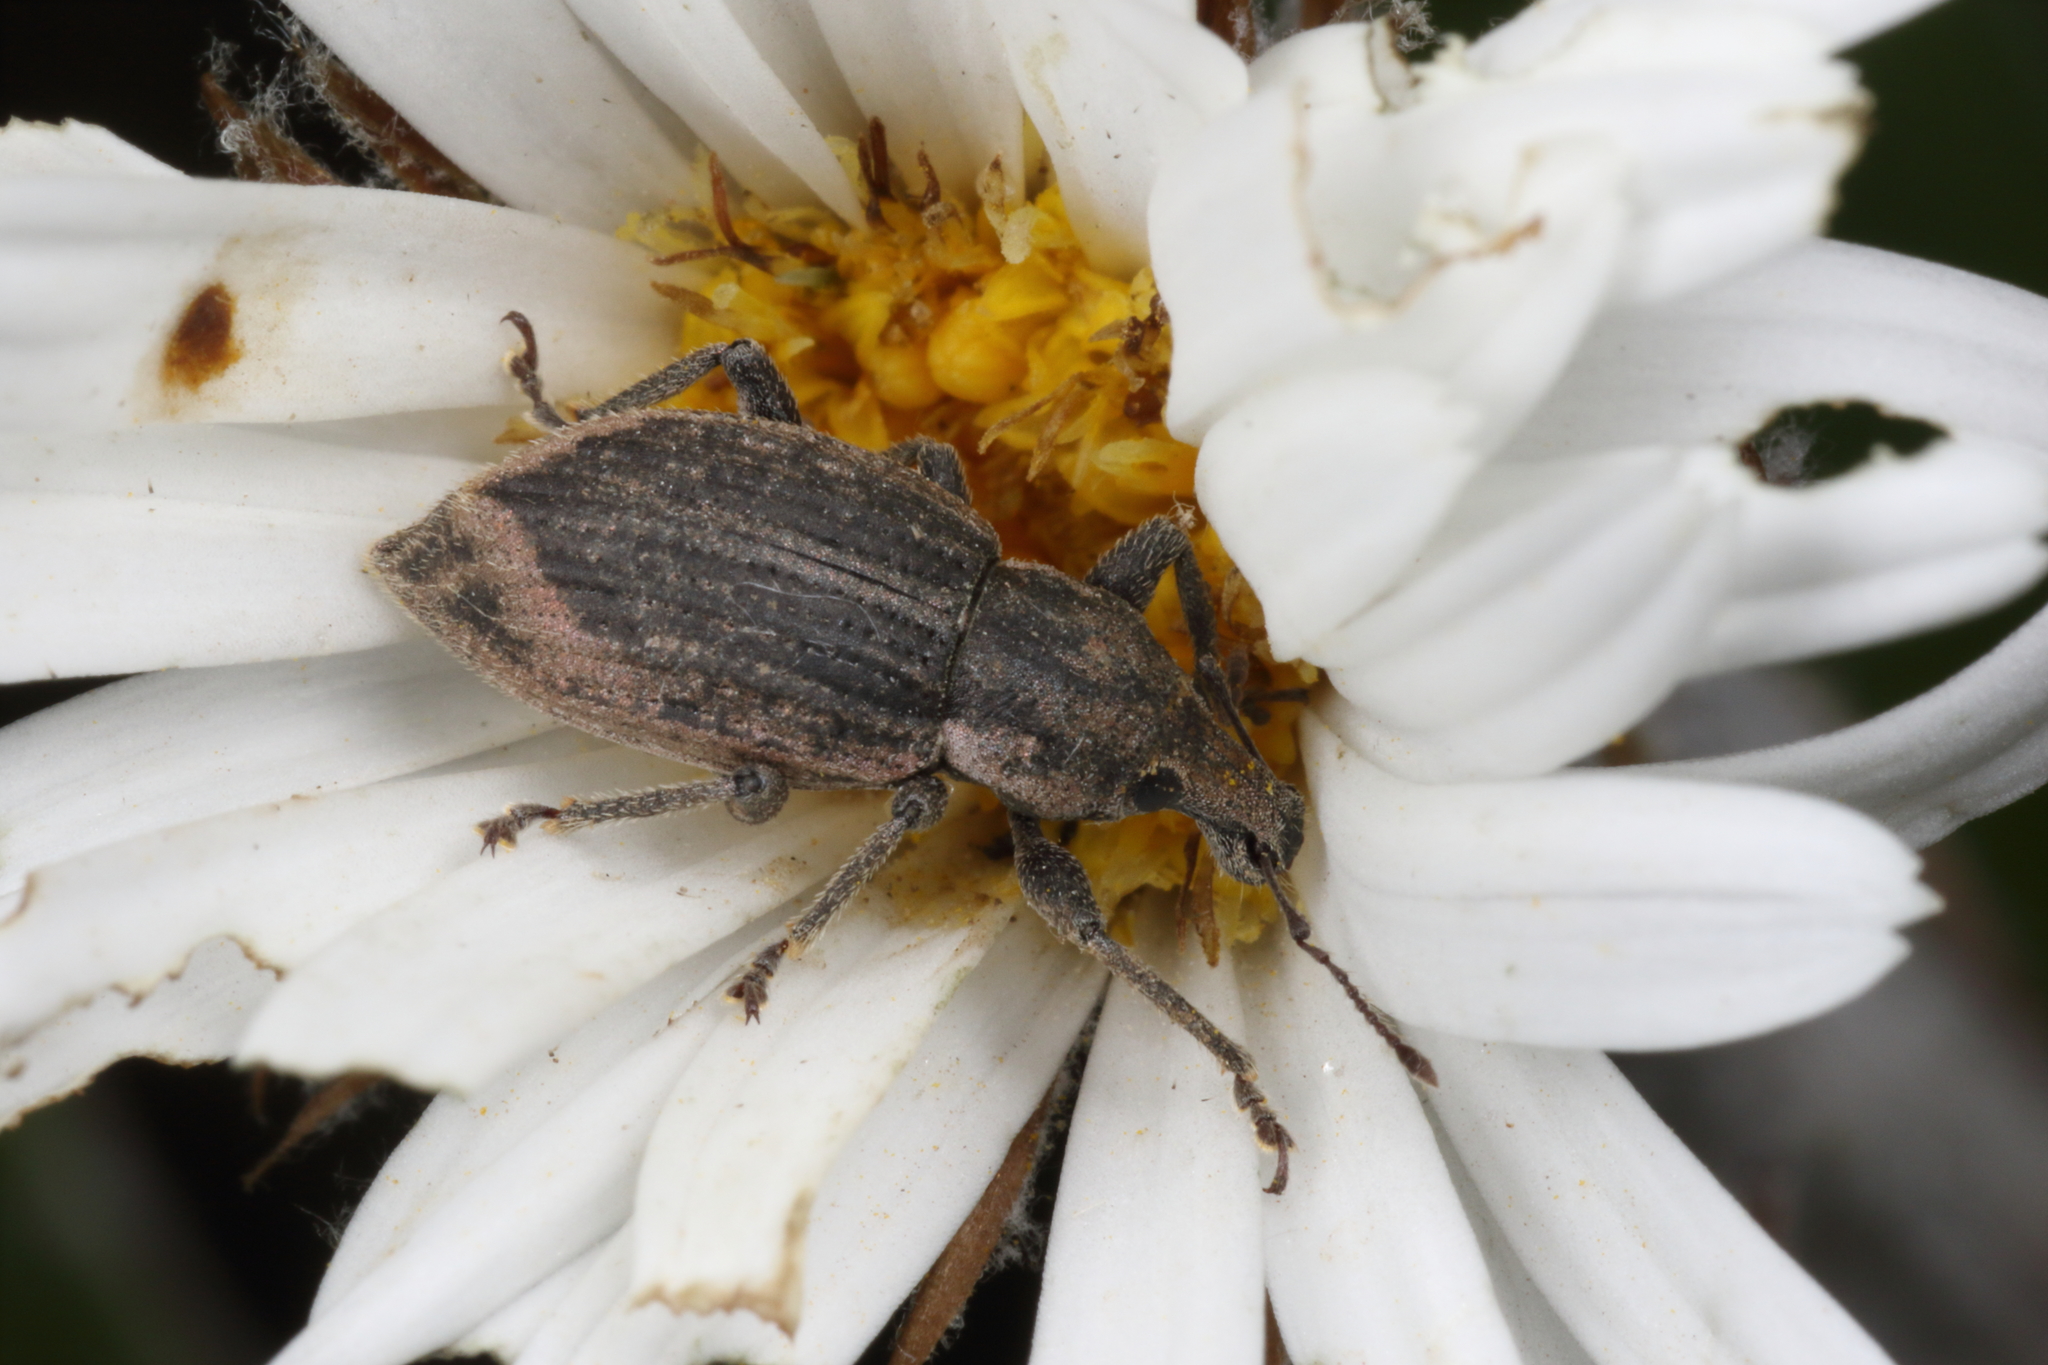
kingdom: Animalia
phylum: Arthropoda
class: Insecta
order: Coleoptera
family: Curculionidae
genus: Chalepistes
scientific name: Chalepistes pensus
